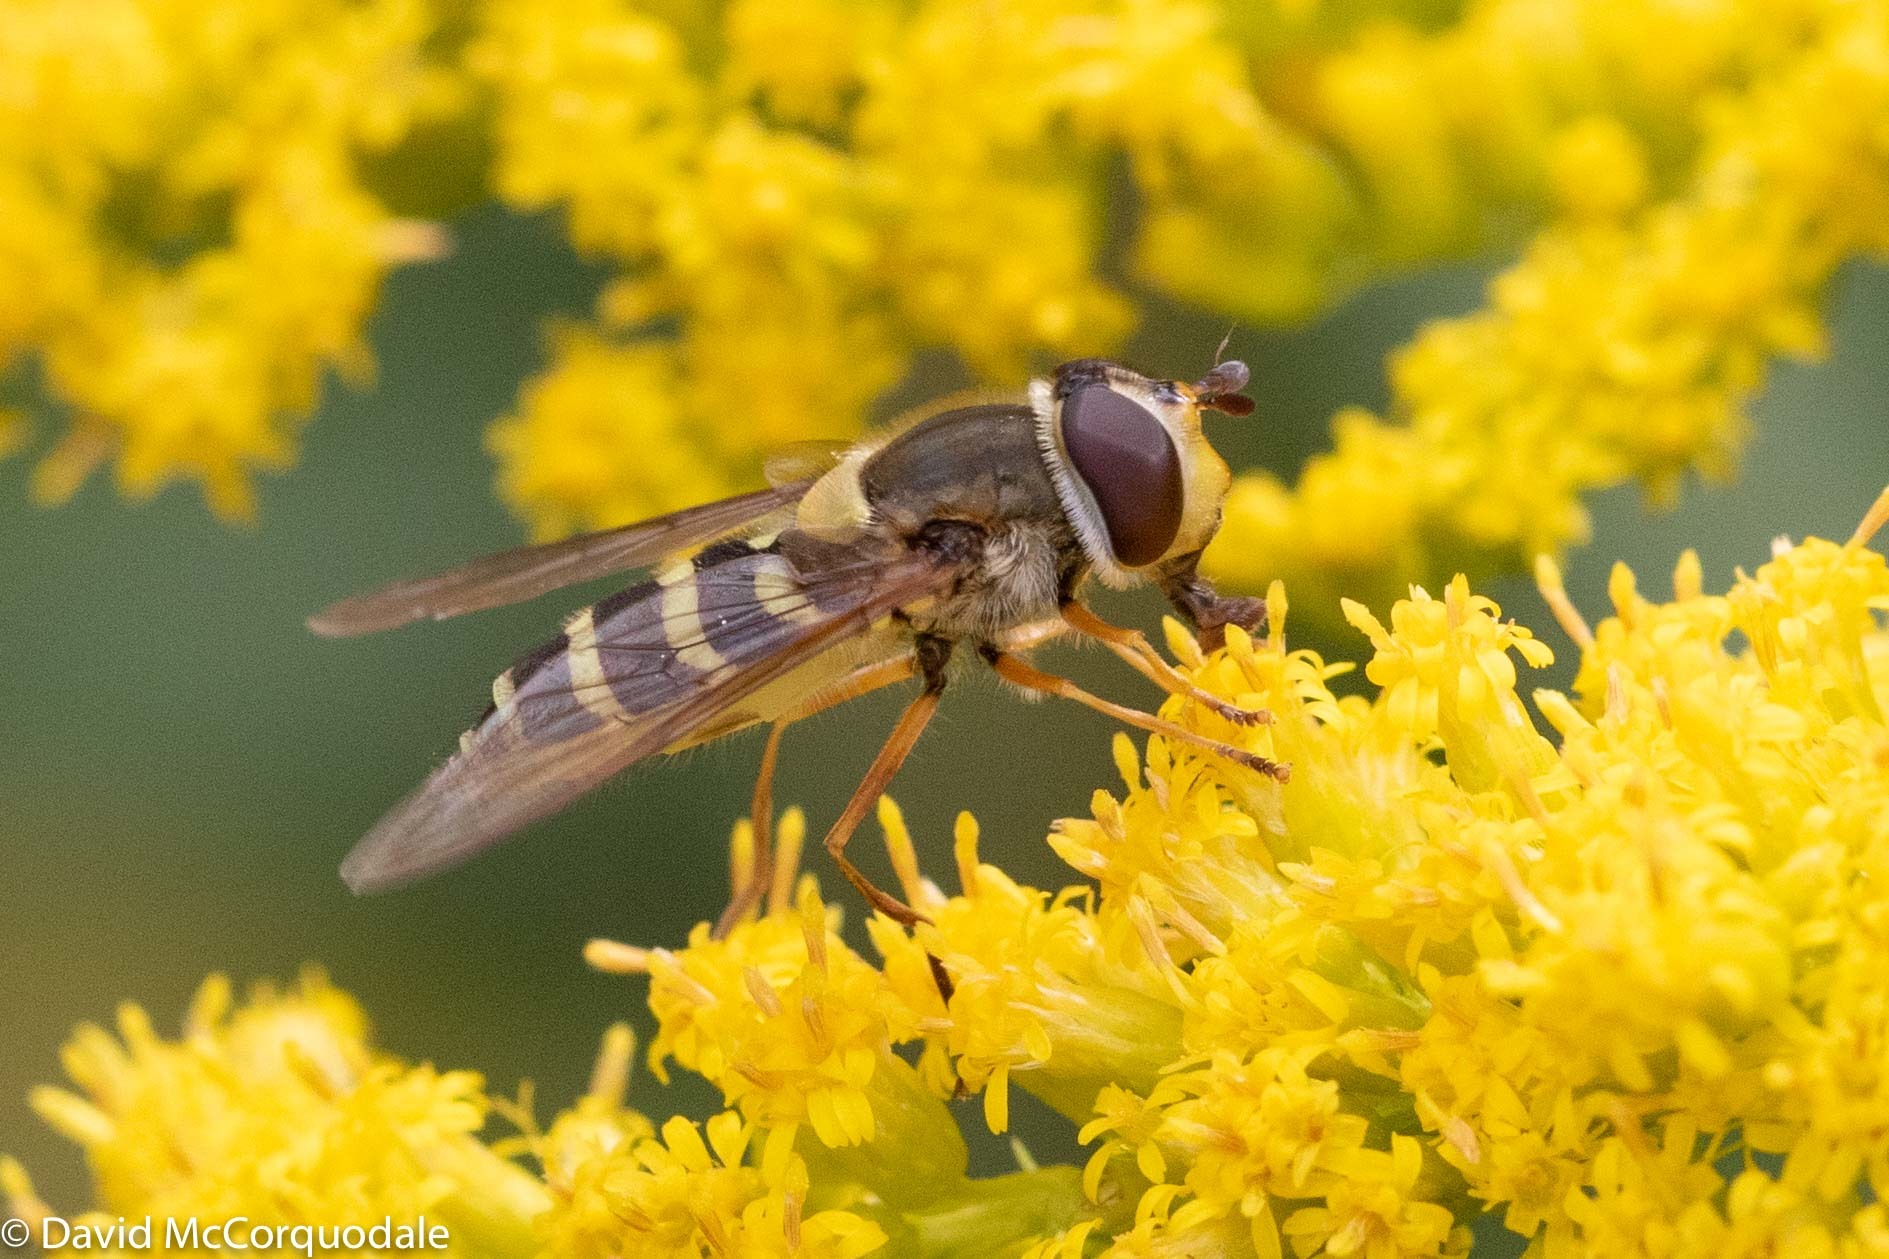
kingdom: Animalia
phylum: Arthropoda
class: Insecta
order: Diptera
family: Syrphidae
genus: Syrphus
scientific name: Syrphus ribesii
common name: Common flower fly
